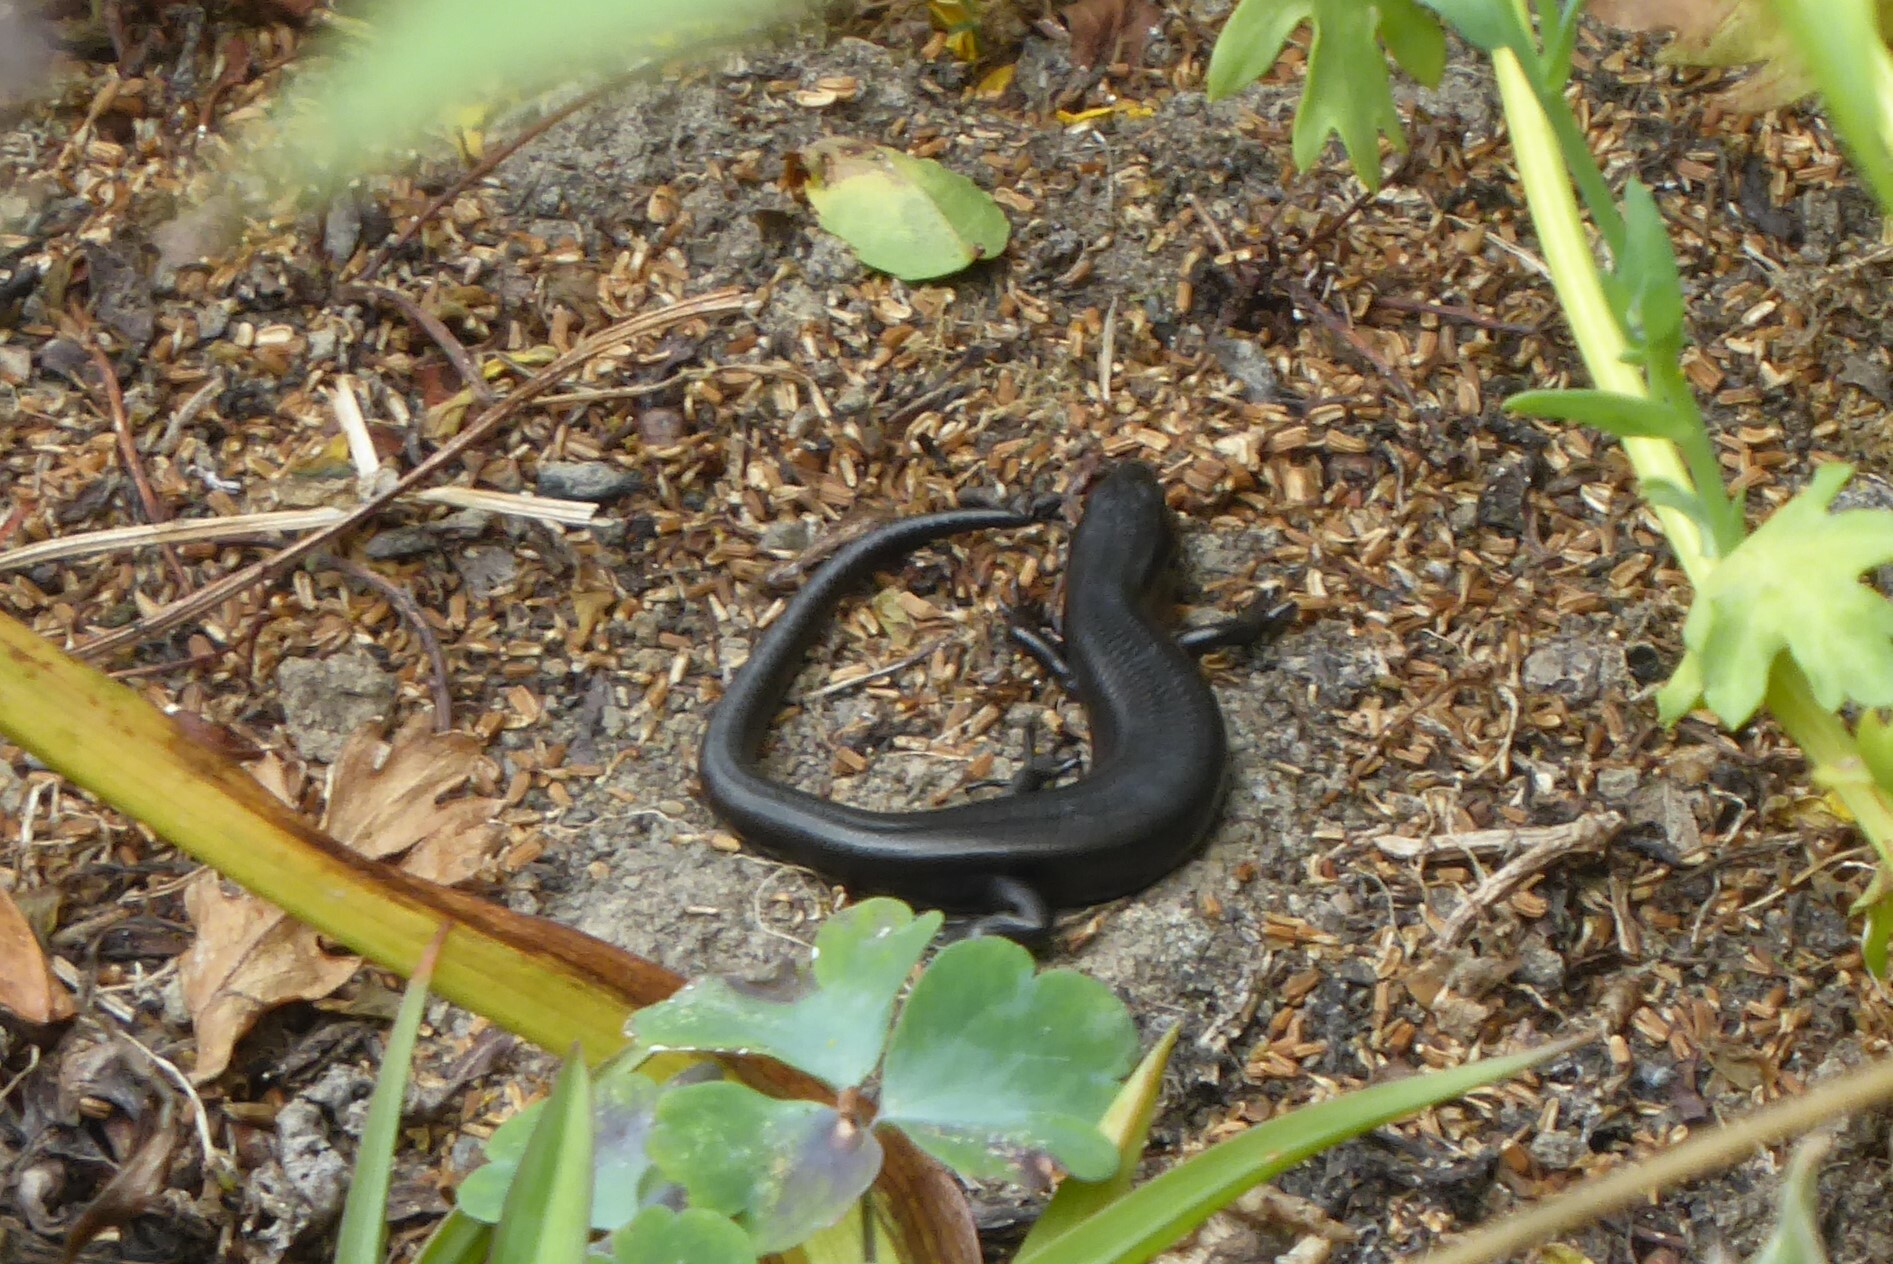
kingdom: Animalia
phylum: Chordata
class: Squamata
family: Scincidae
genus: Oligosoma
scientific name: Oligosoma polychroma
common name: Common new zealand skink
